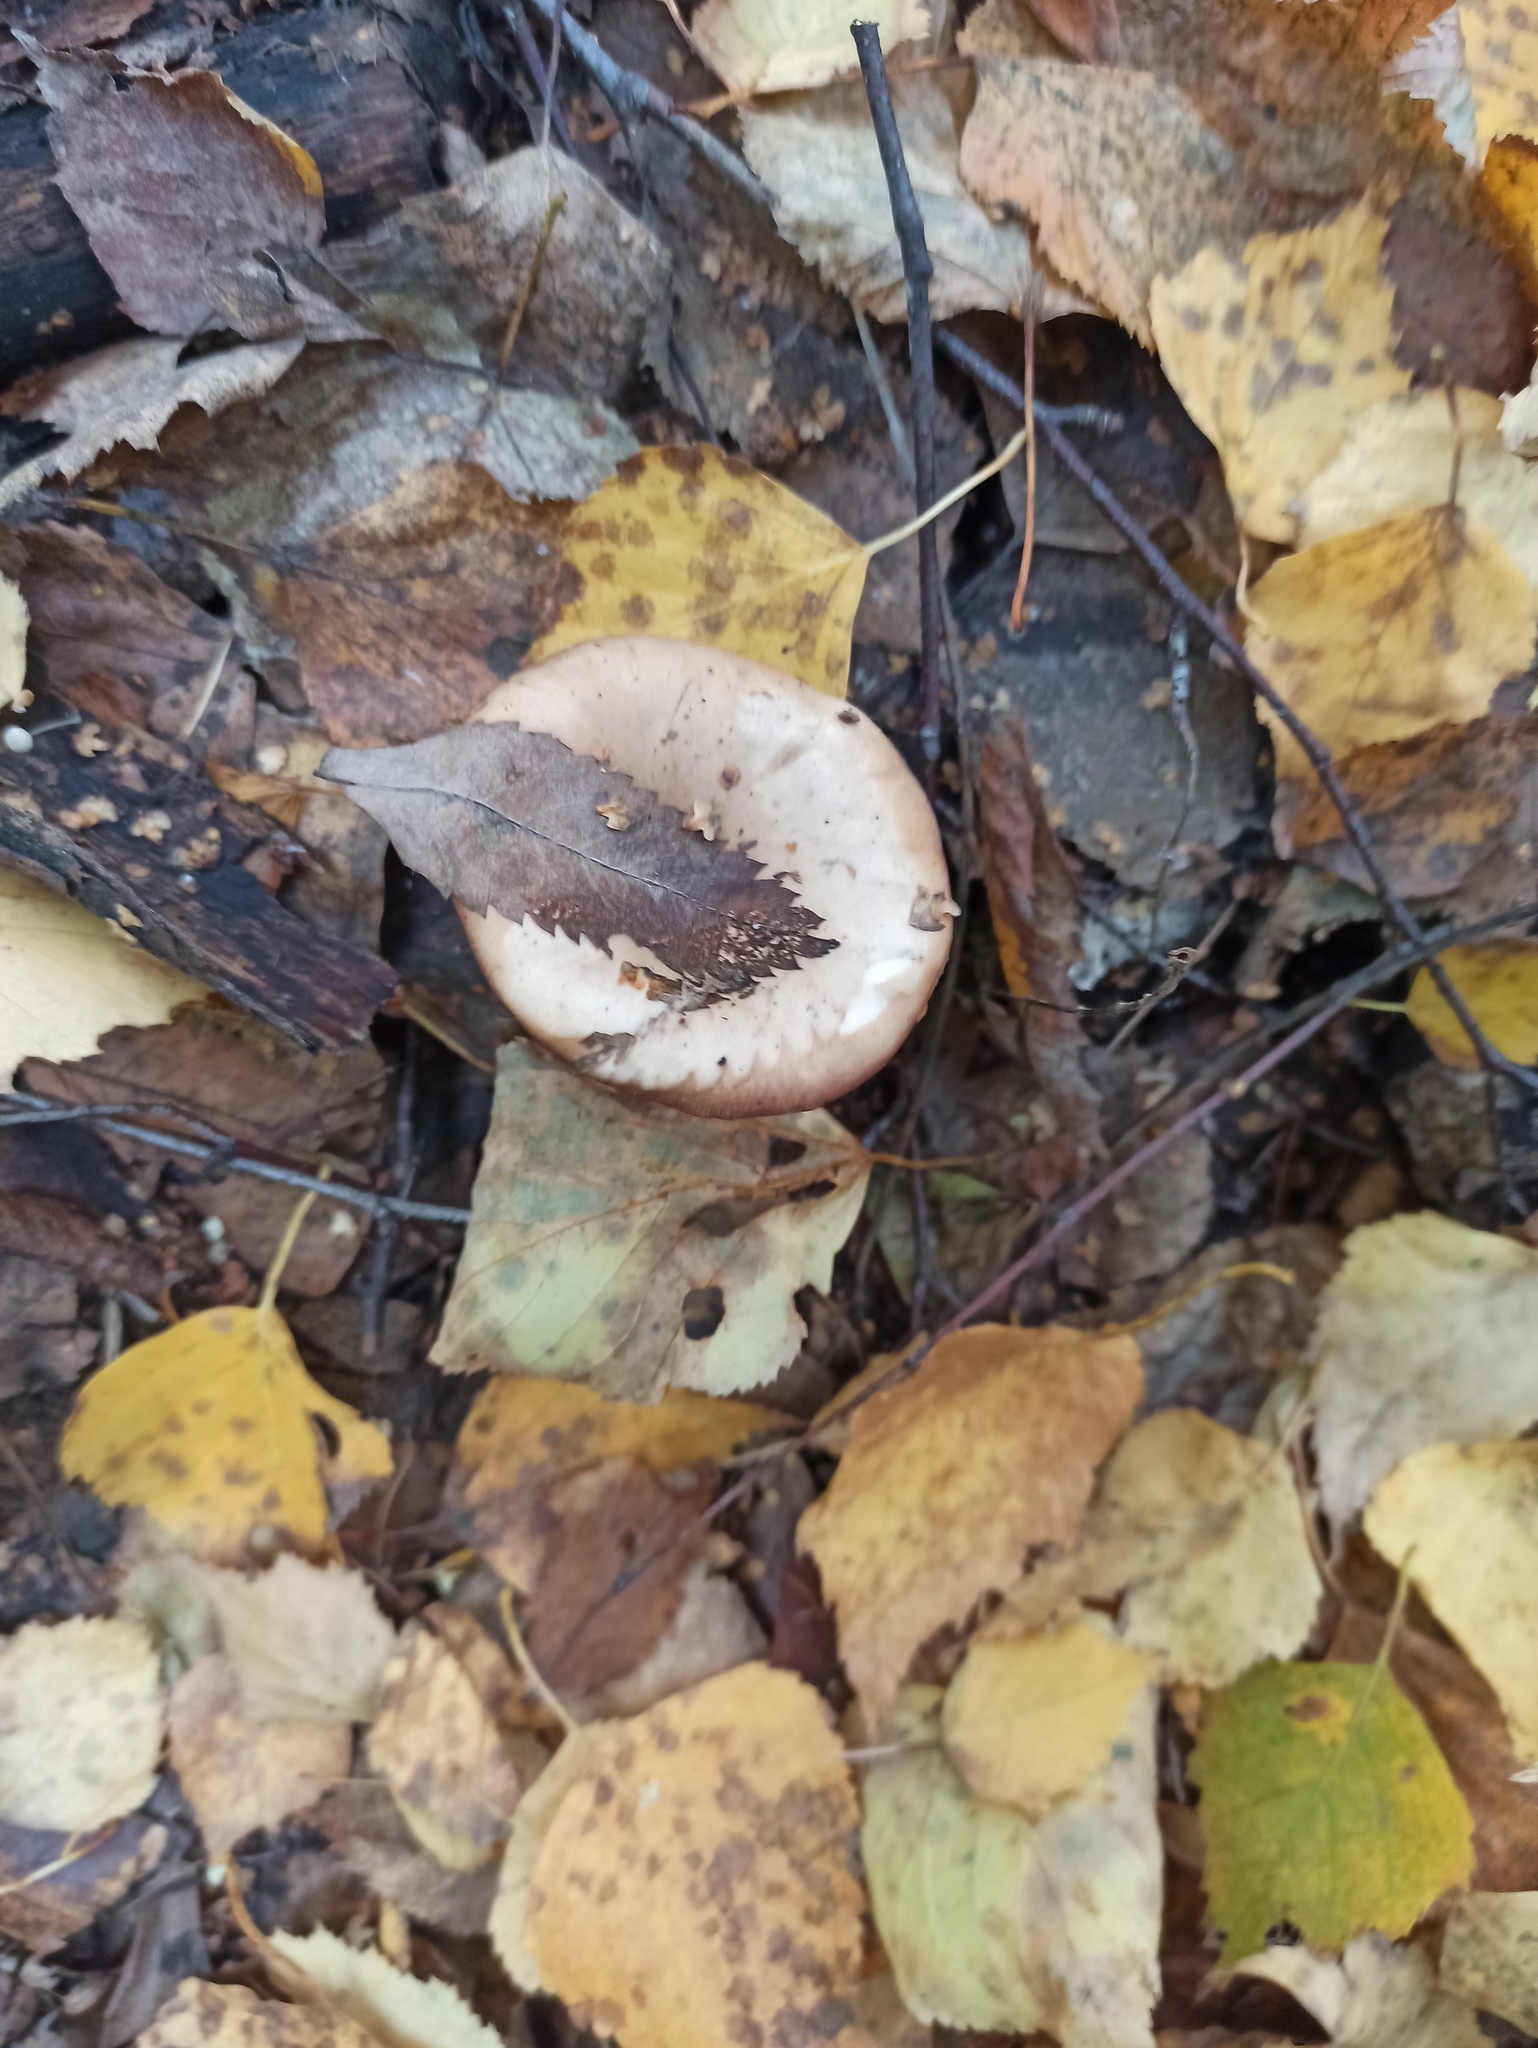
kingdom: Fungi
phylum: Basidiomycota
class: Agaricomycetes
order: Agaricales
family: Tricholomataceae
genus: Collybia
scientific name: Collybia
